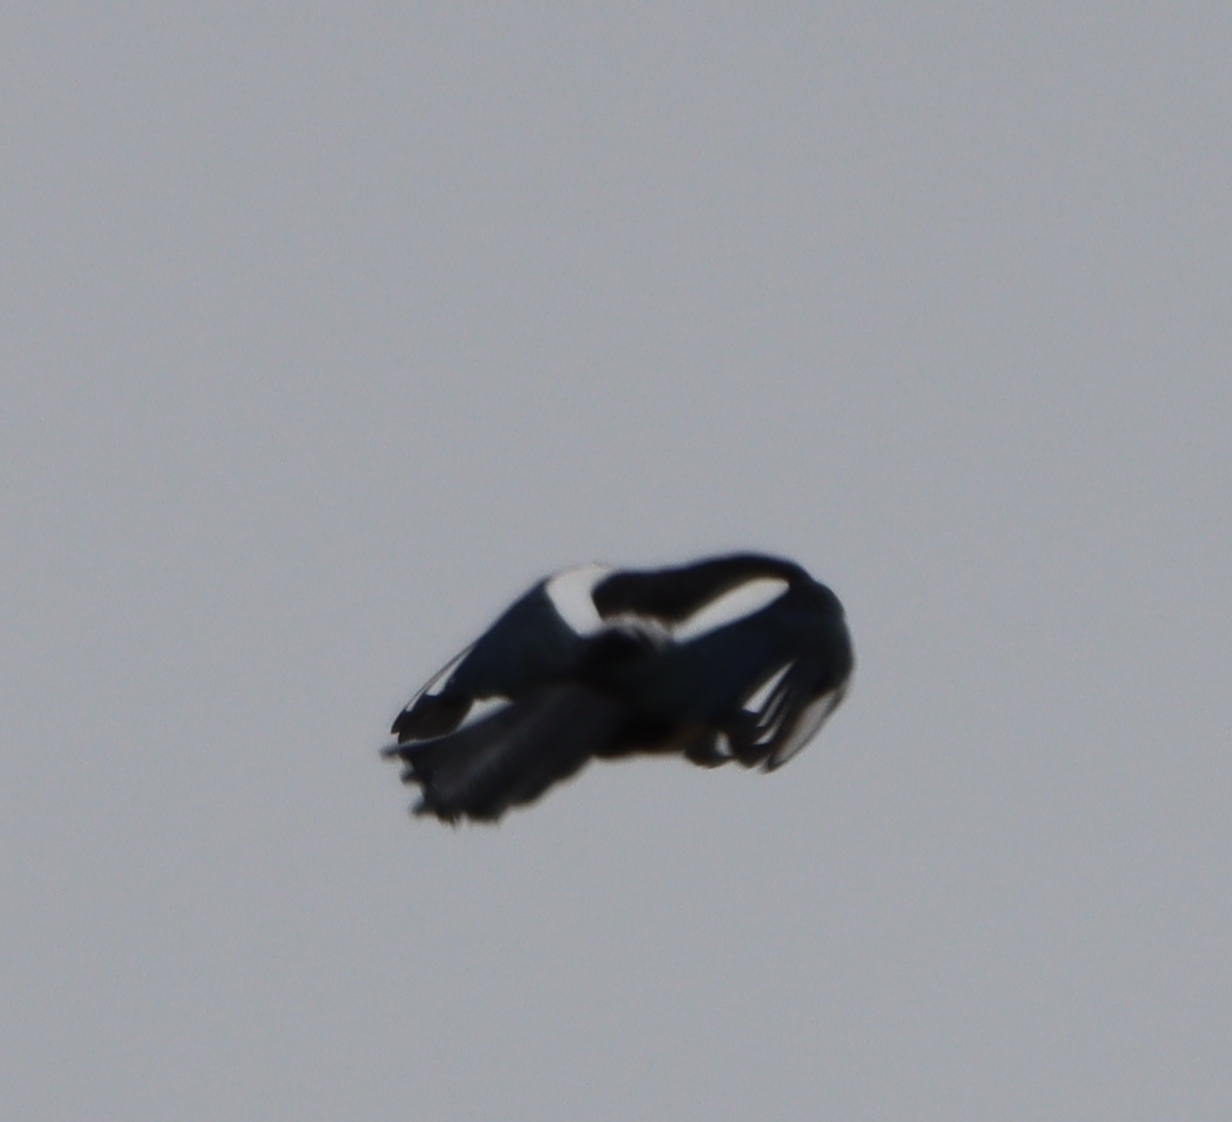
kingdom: Animalia
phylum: Chordata
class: Aves
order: Passeriformes
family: Corvidae
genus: Pica
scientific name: Pica hudsonia
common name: Black-billed magpie
